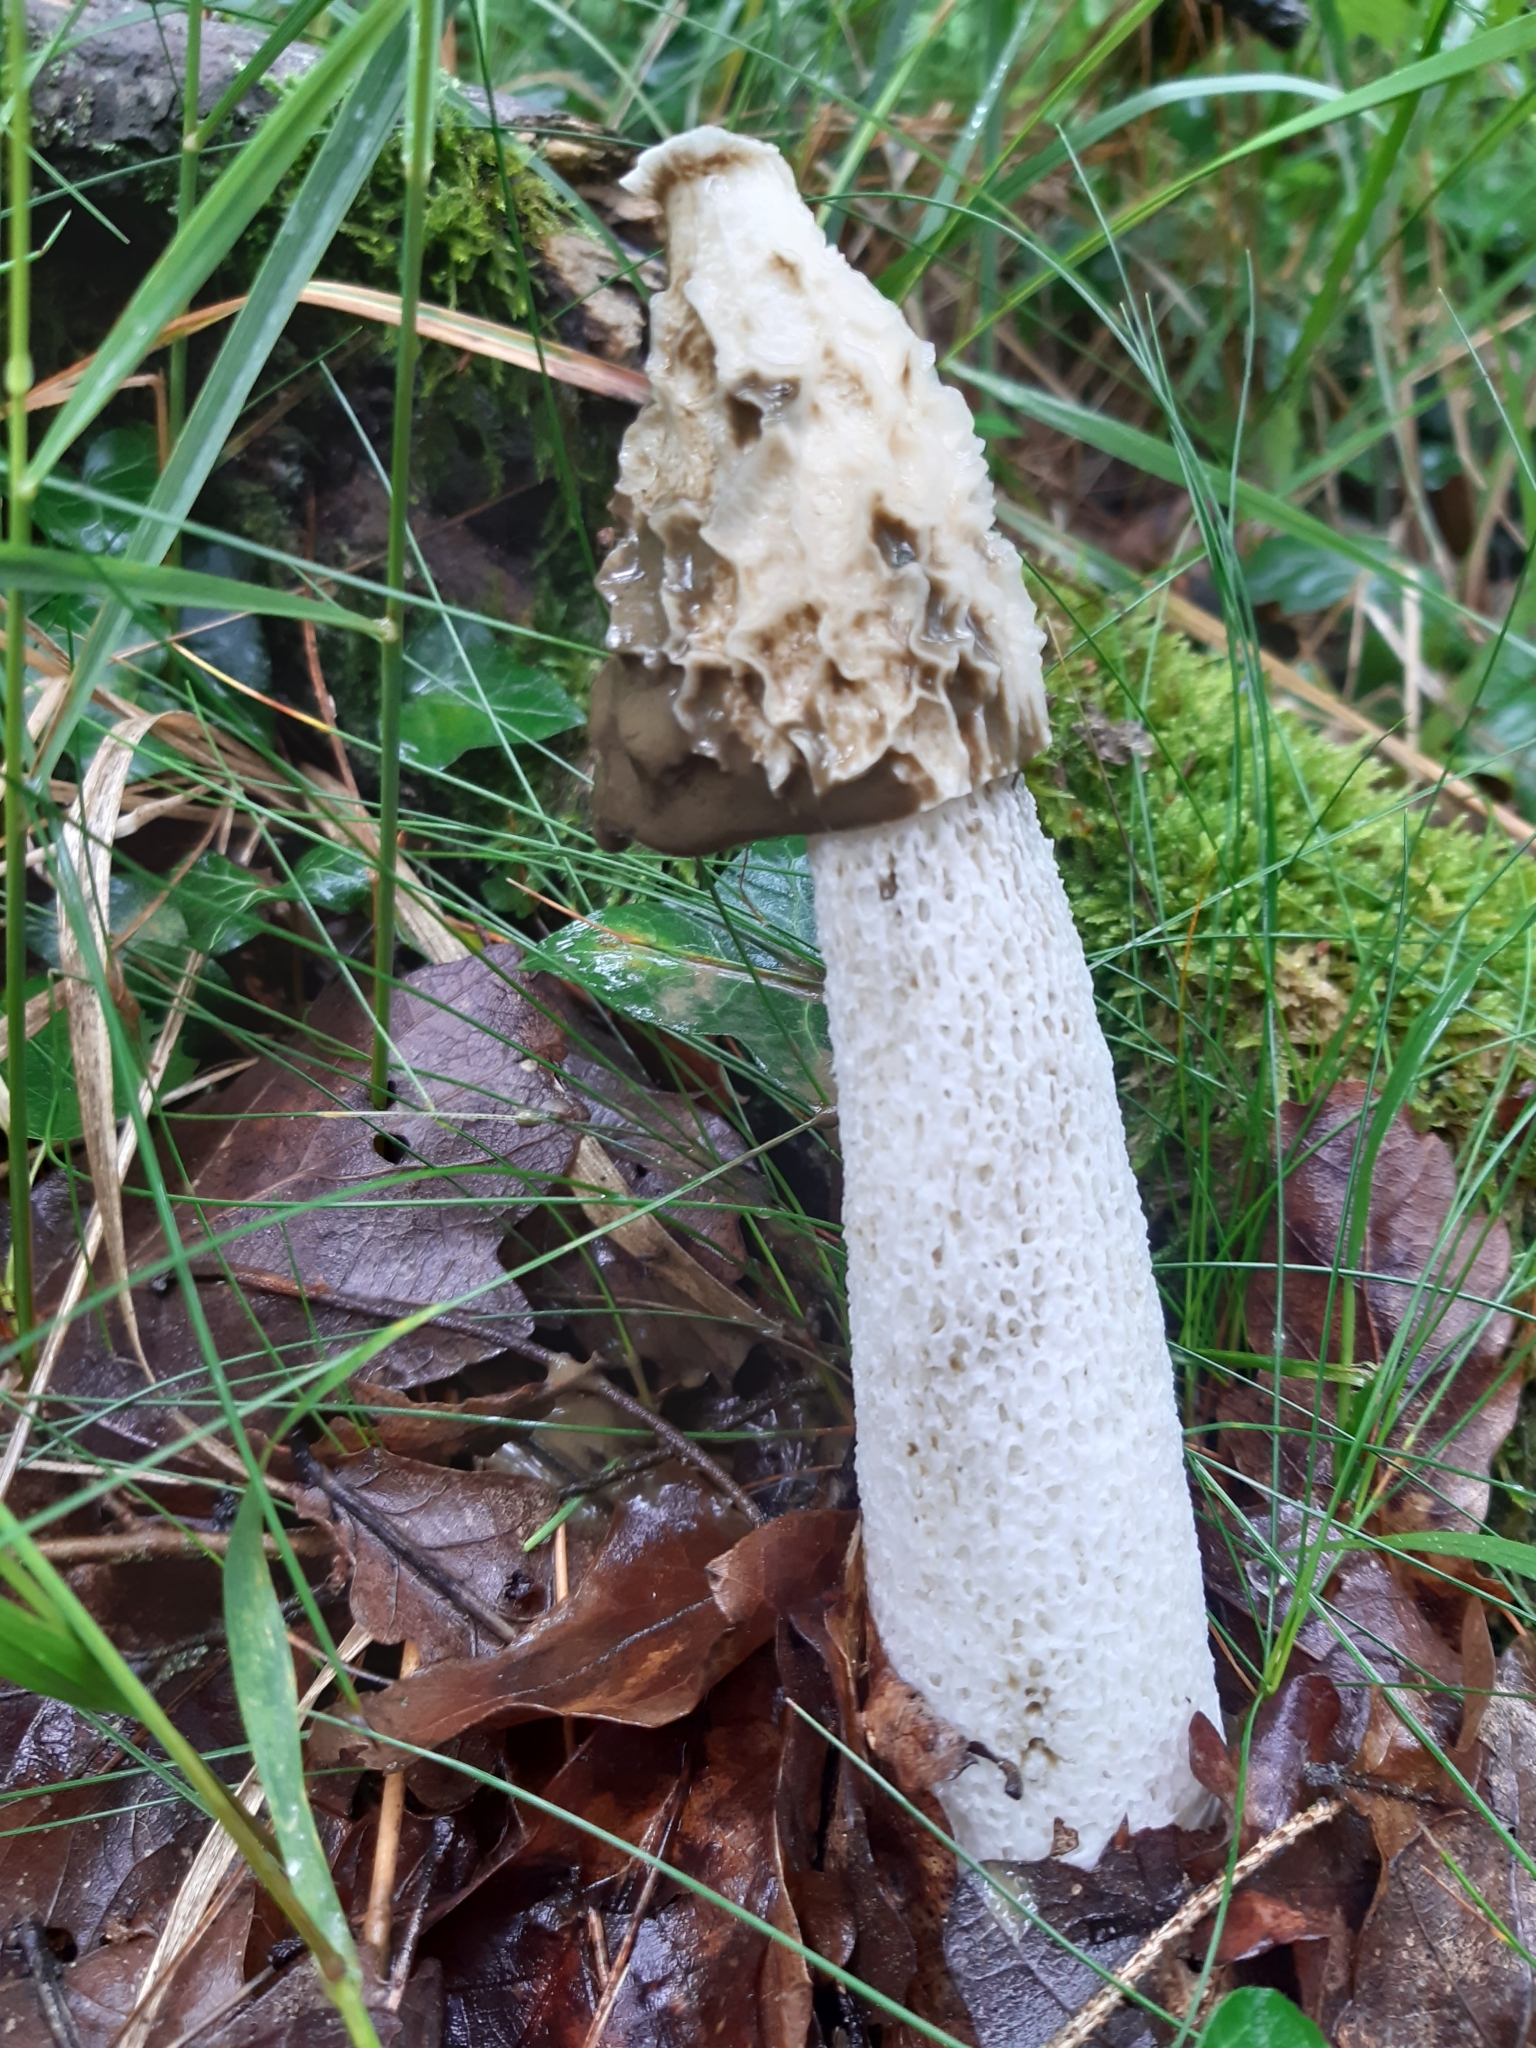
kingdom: Fungi
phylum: Basidiomycota
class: Agaricomycetes
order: Phallales
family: Phallaceae
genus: Phallus
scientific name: Phallus impudicus
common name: Common stinkhorn
